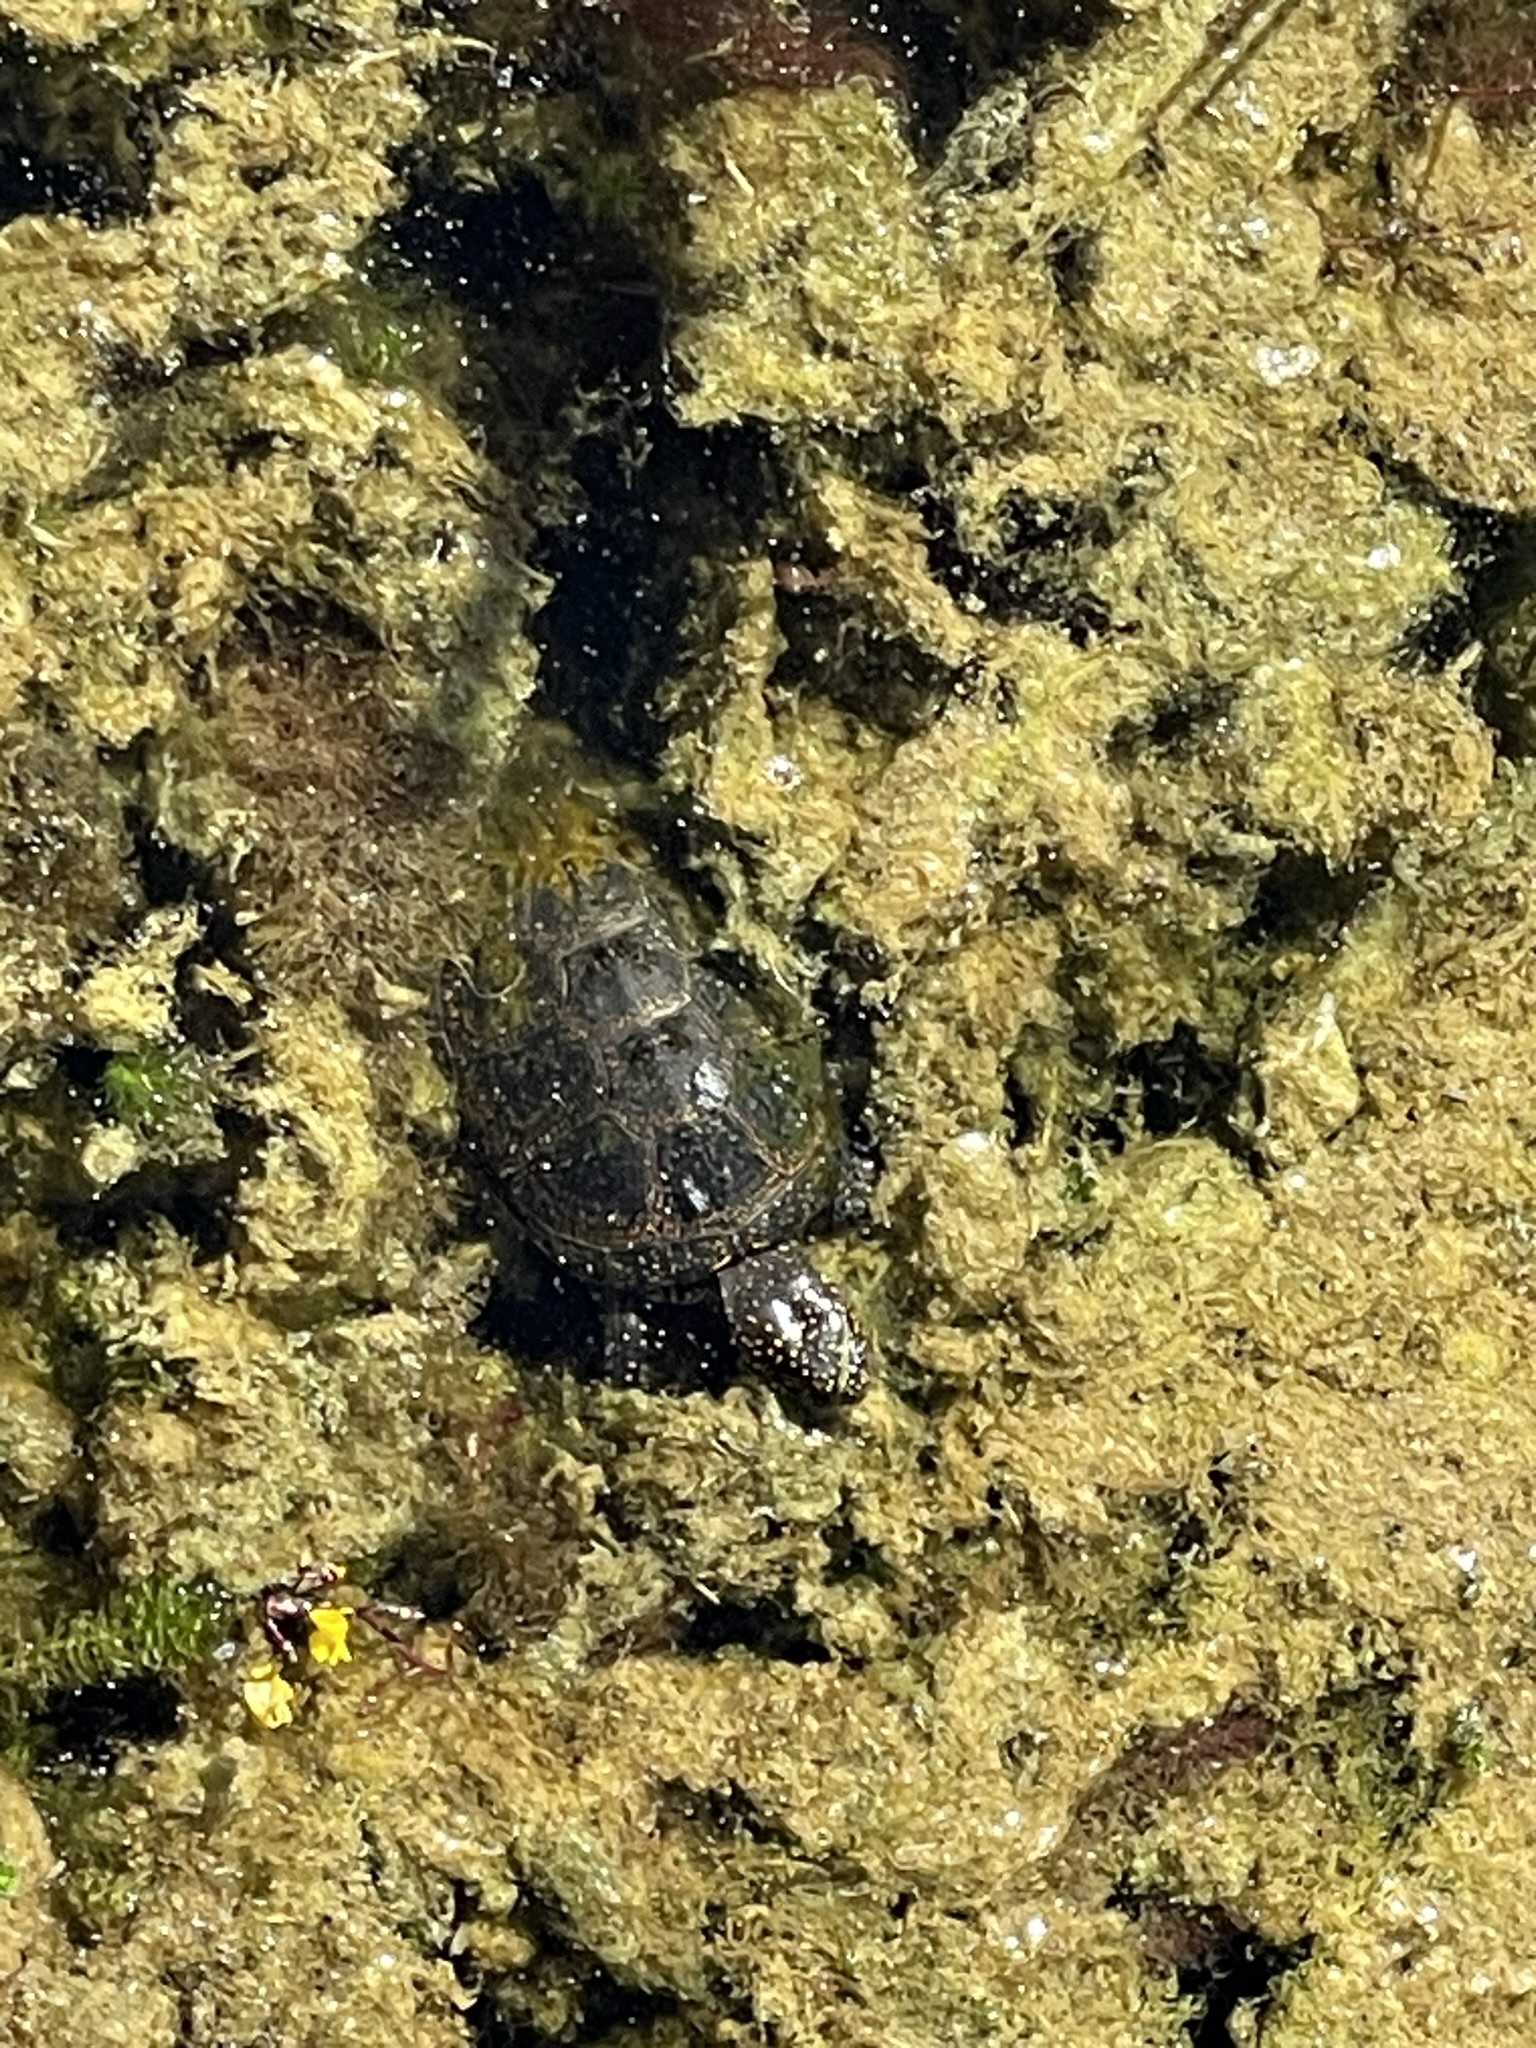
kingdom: Animalia
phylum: Chordata
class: Testudines
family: Emydidae
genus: Emys
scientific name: Emys orbicularis
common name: European pond turtle
